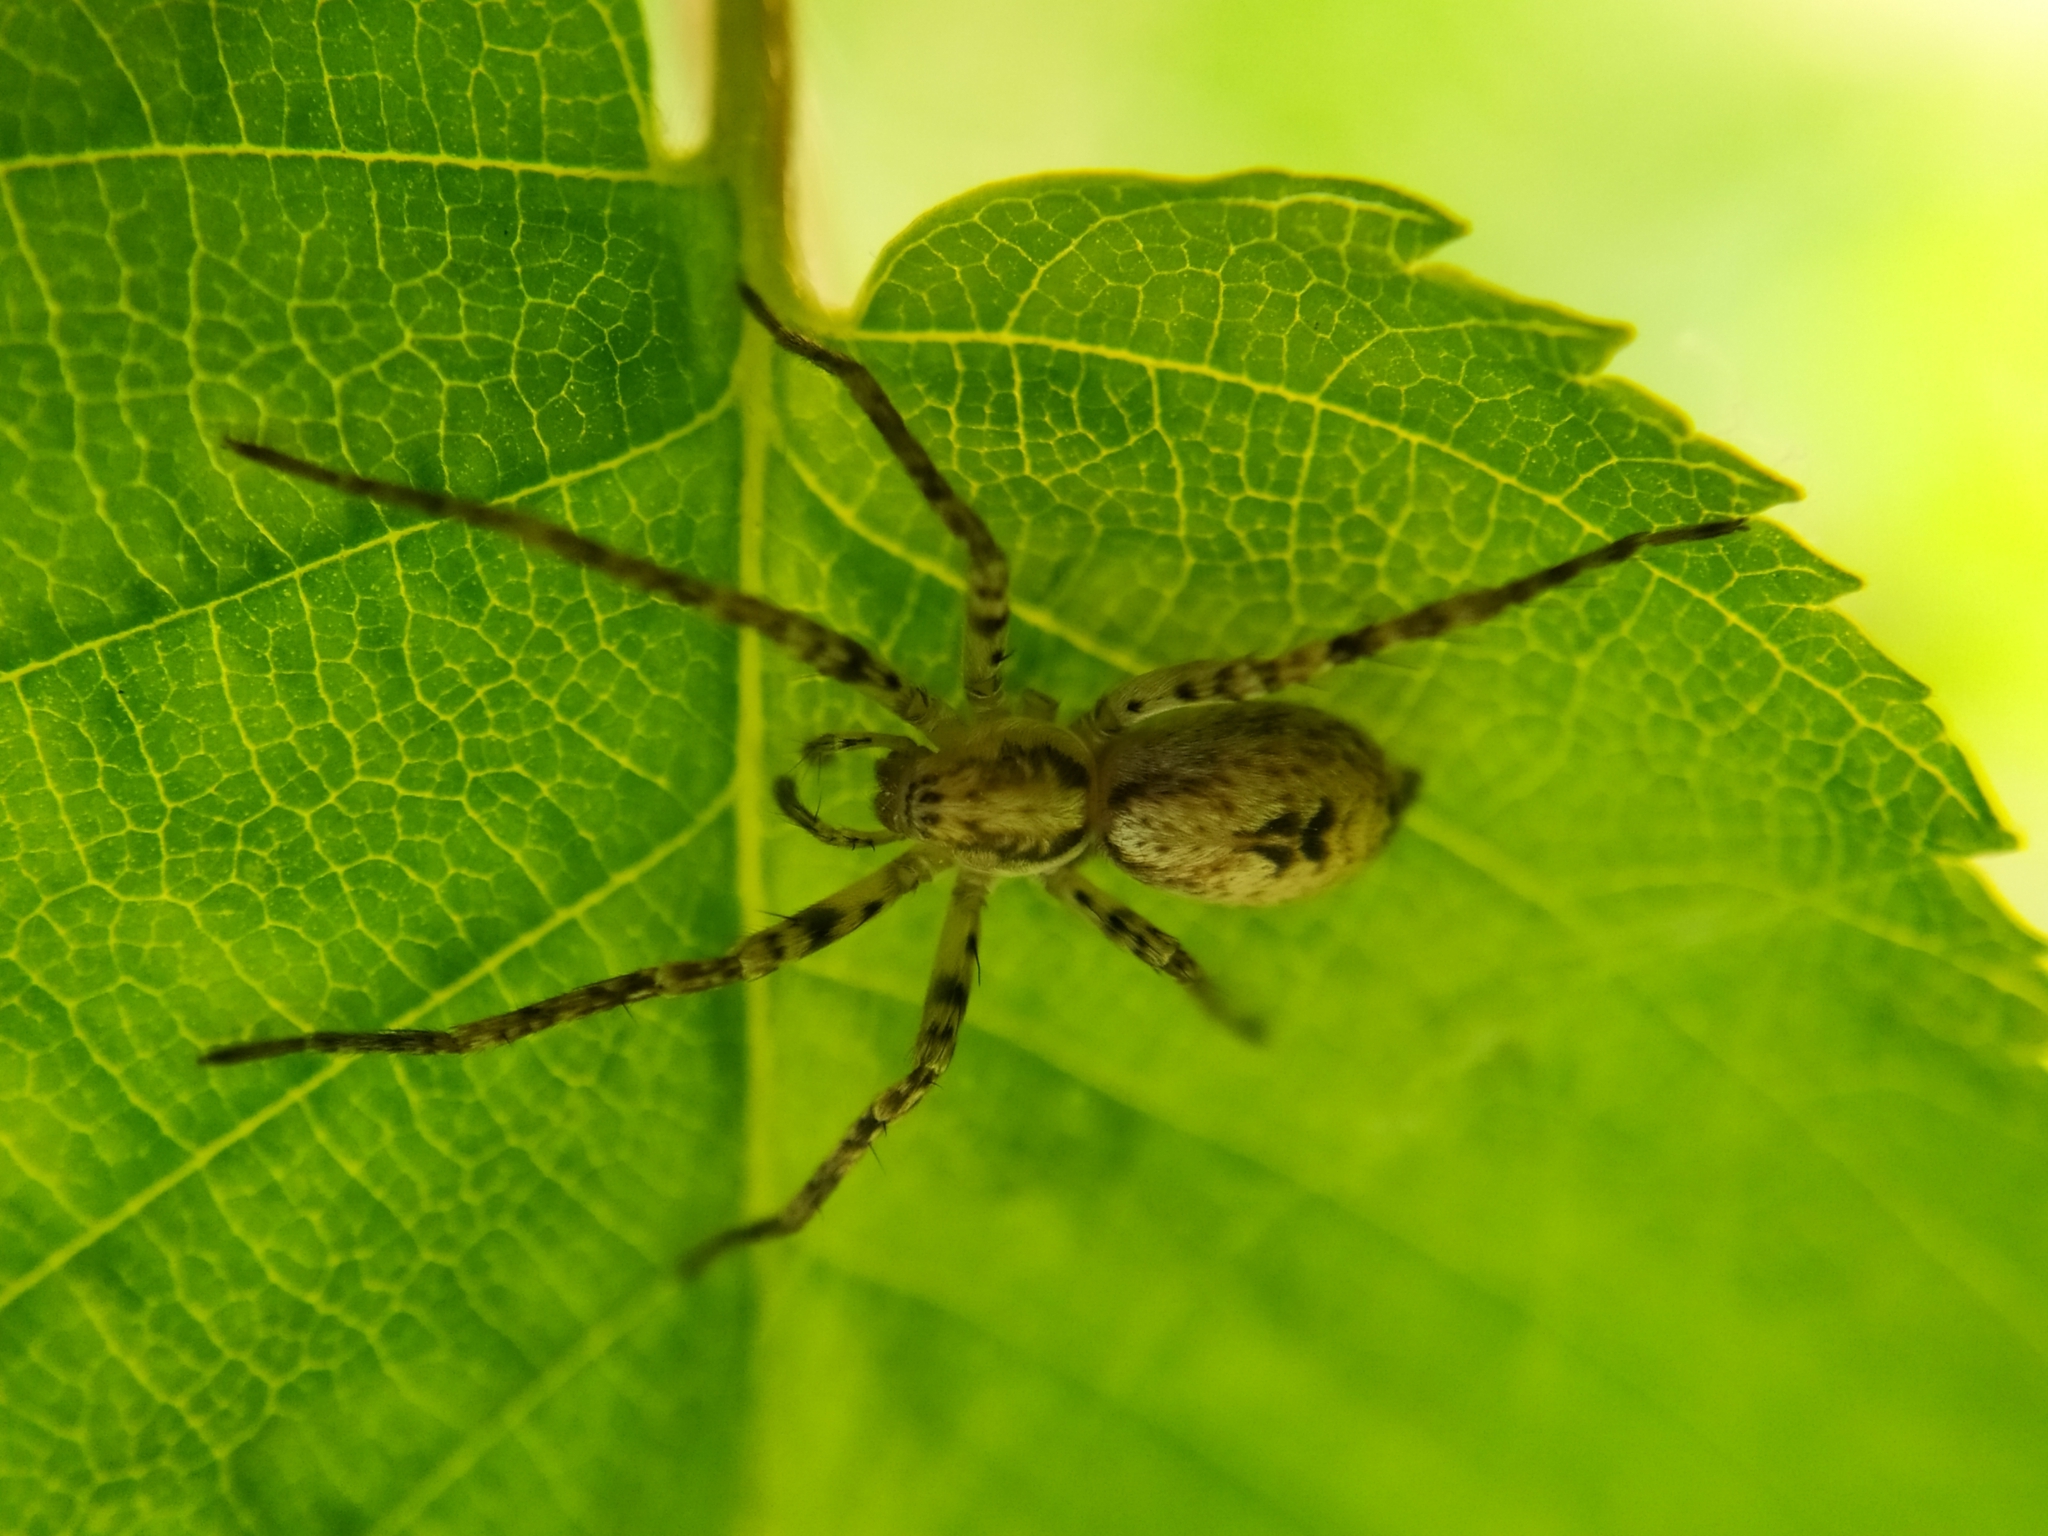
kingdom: Animalia
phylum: Arthropoda
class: Arachnida
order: Araneae
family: Anyphaenidae
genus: Anyphaena
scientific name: Anyphaena accentuata
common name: Buzzing spider
